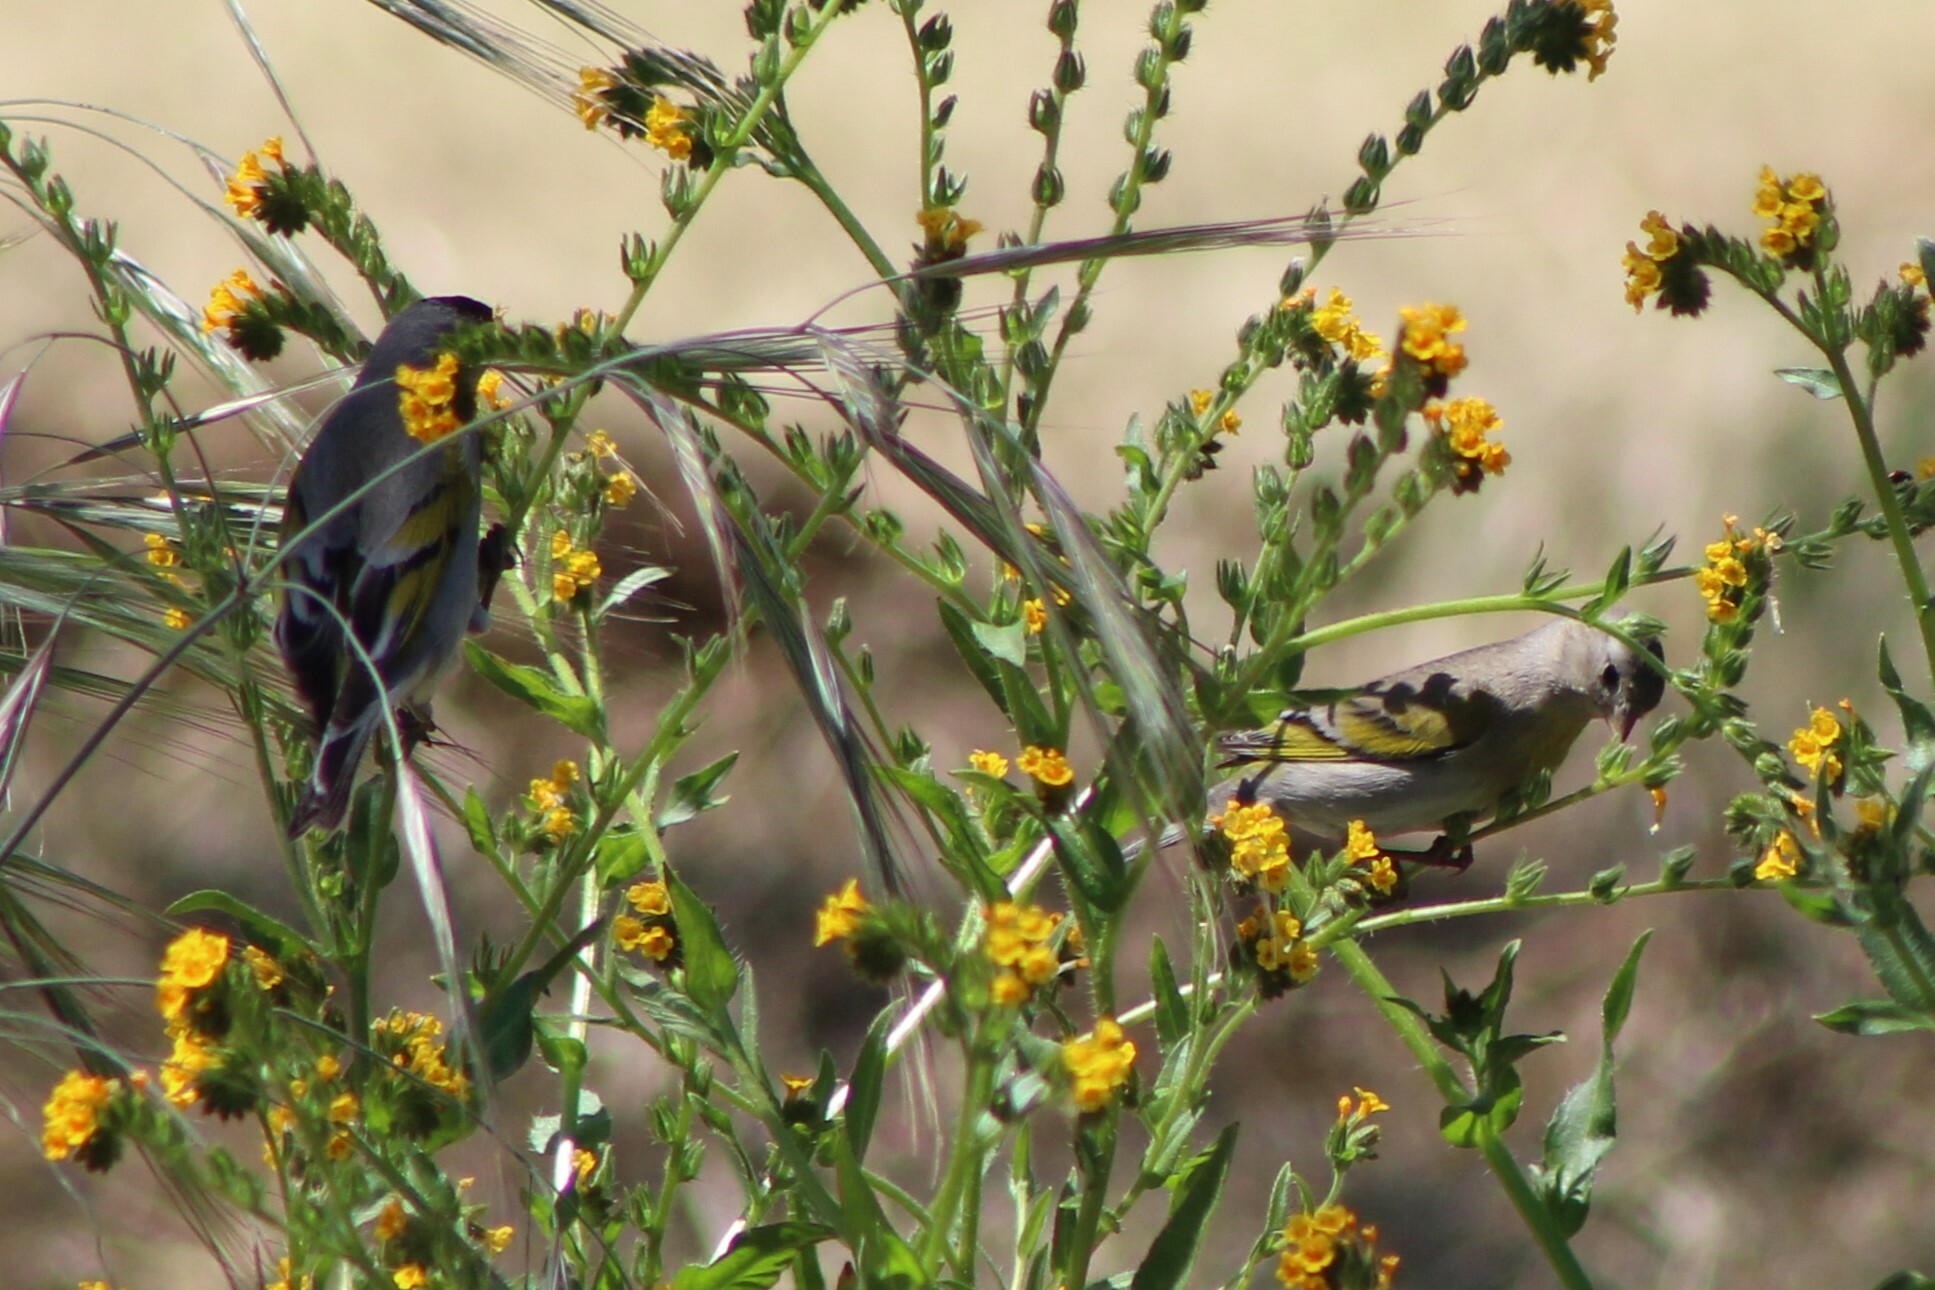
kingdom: Animalia
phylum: Chordata
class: Aves
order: Passeriformes
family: Fringillidae
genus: Spinus
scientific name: Spinus lawrencei
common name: Lawrence's goldfinch
